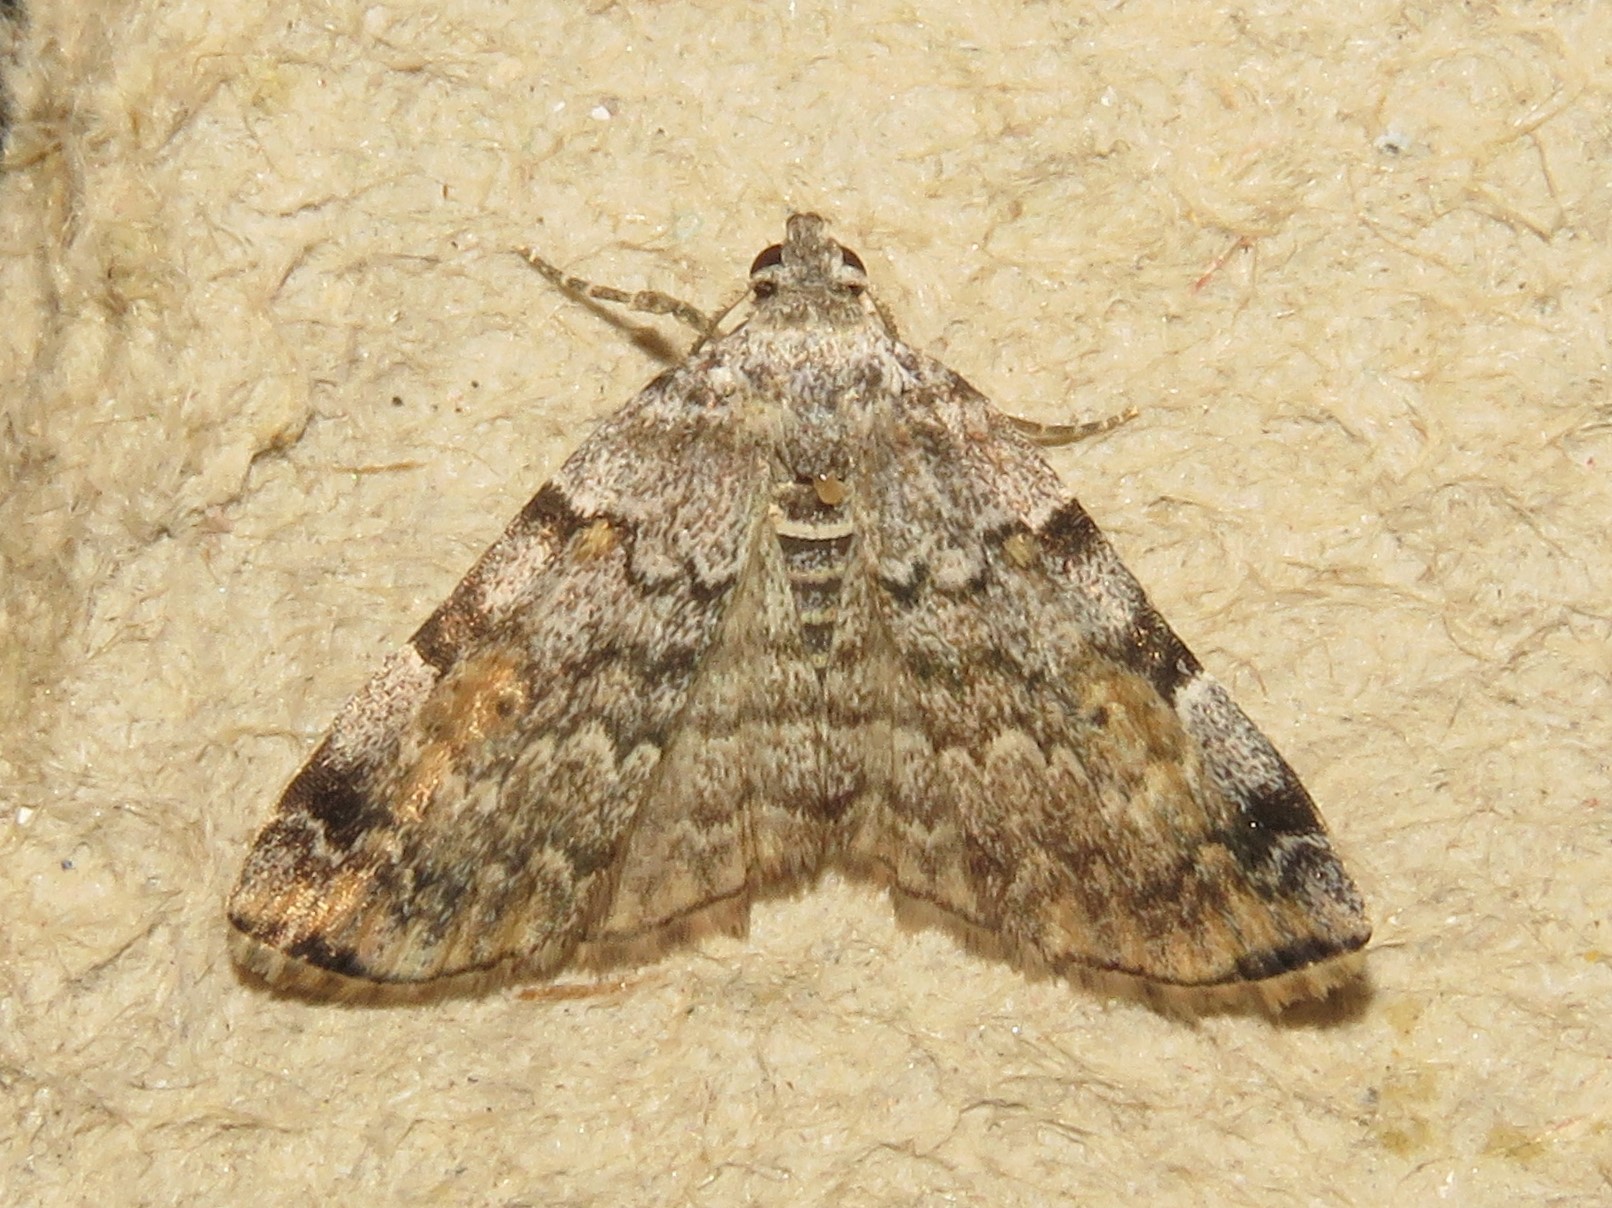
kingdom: Animalia
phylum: Arthropoda
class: Insecta
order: Lepidoptera
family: Erebidae
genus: Idia
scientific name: Idia americalis
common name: American idia moth
